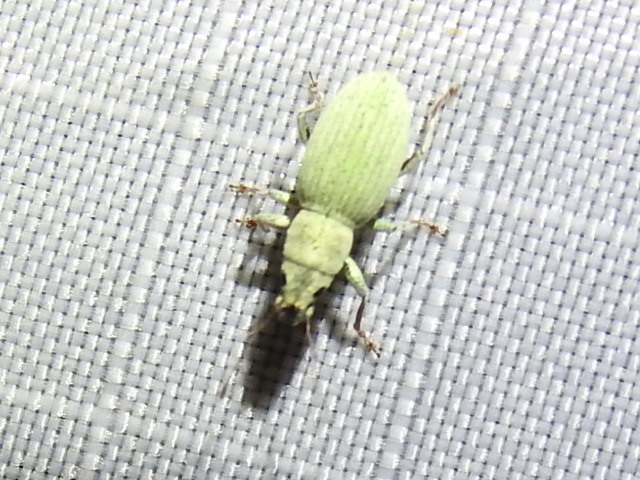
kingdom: Animalia
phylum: Arthropoda
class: Insecta
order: Coleoptera
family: Curculionidae
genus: Mitostylus
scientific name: Mitostylus tenuis
